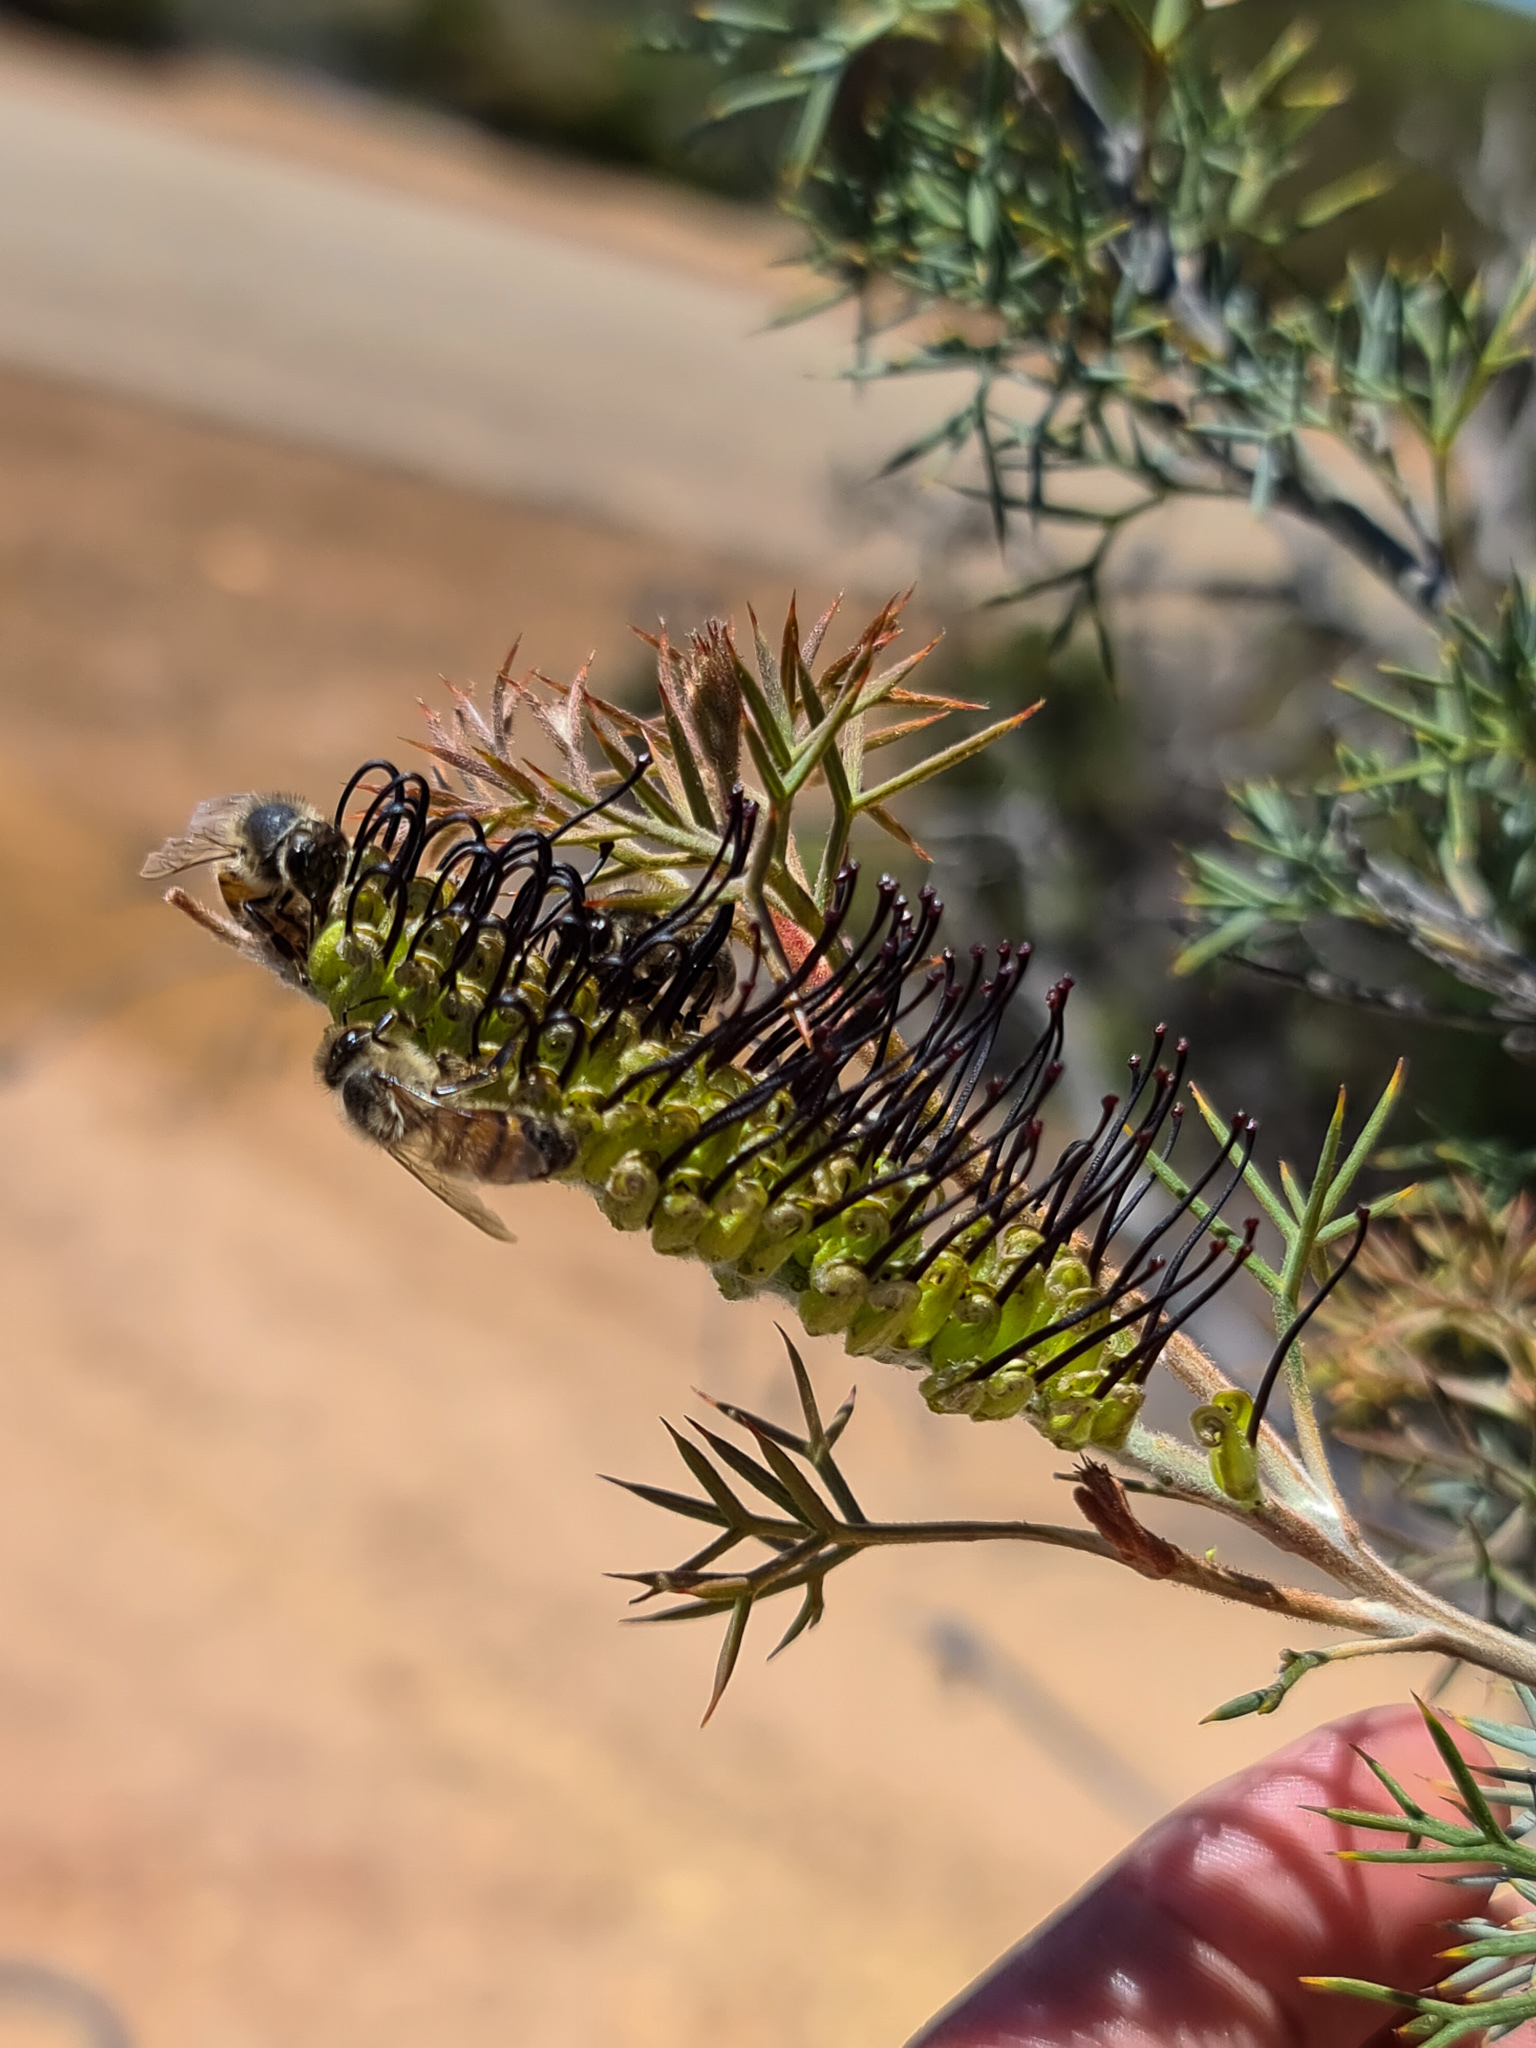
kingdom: Plantae
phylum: Tracheophyta
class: Magnoliopsida
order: Proteales
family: Proteaceae
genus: Grevillea
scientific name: Grevillea armigera
